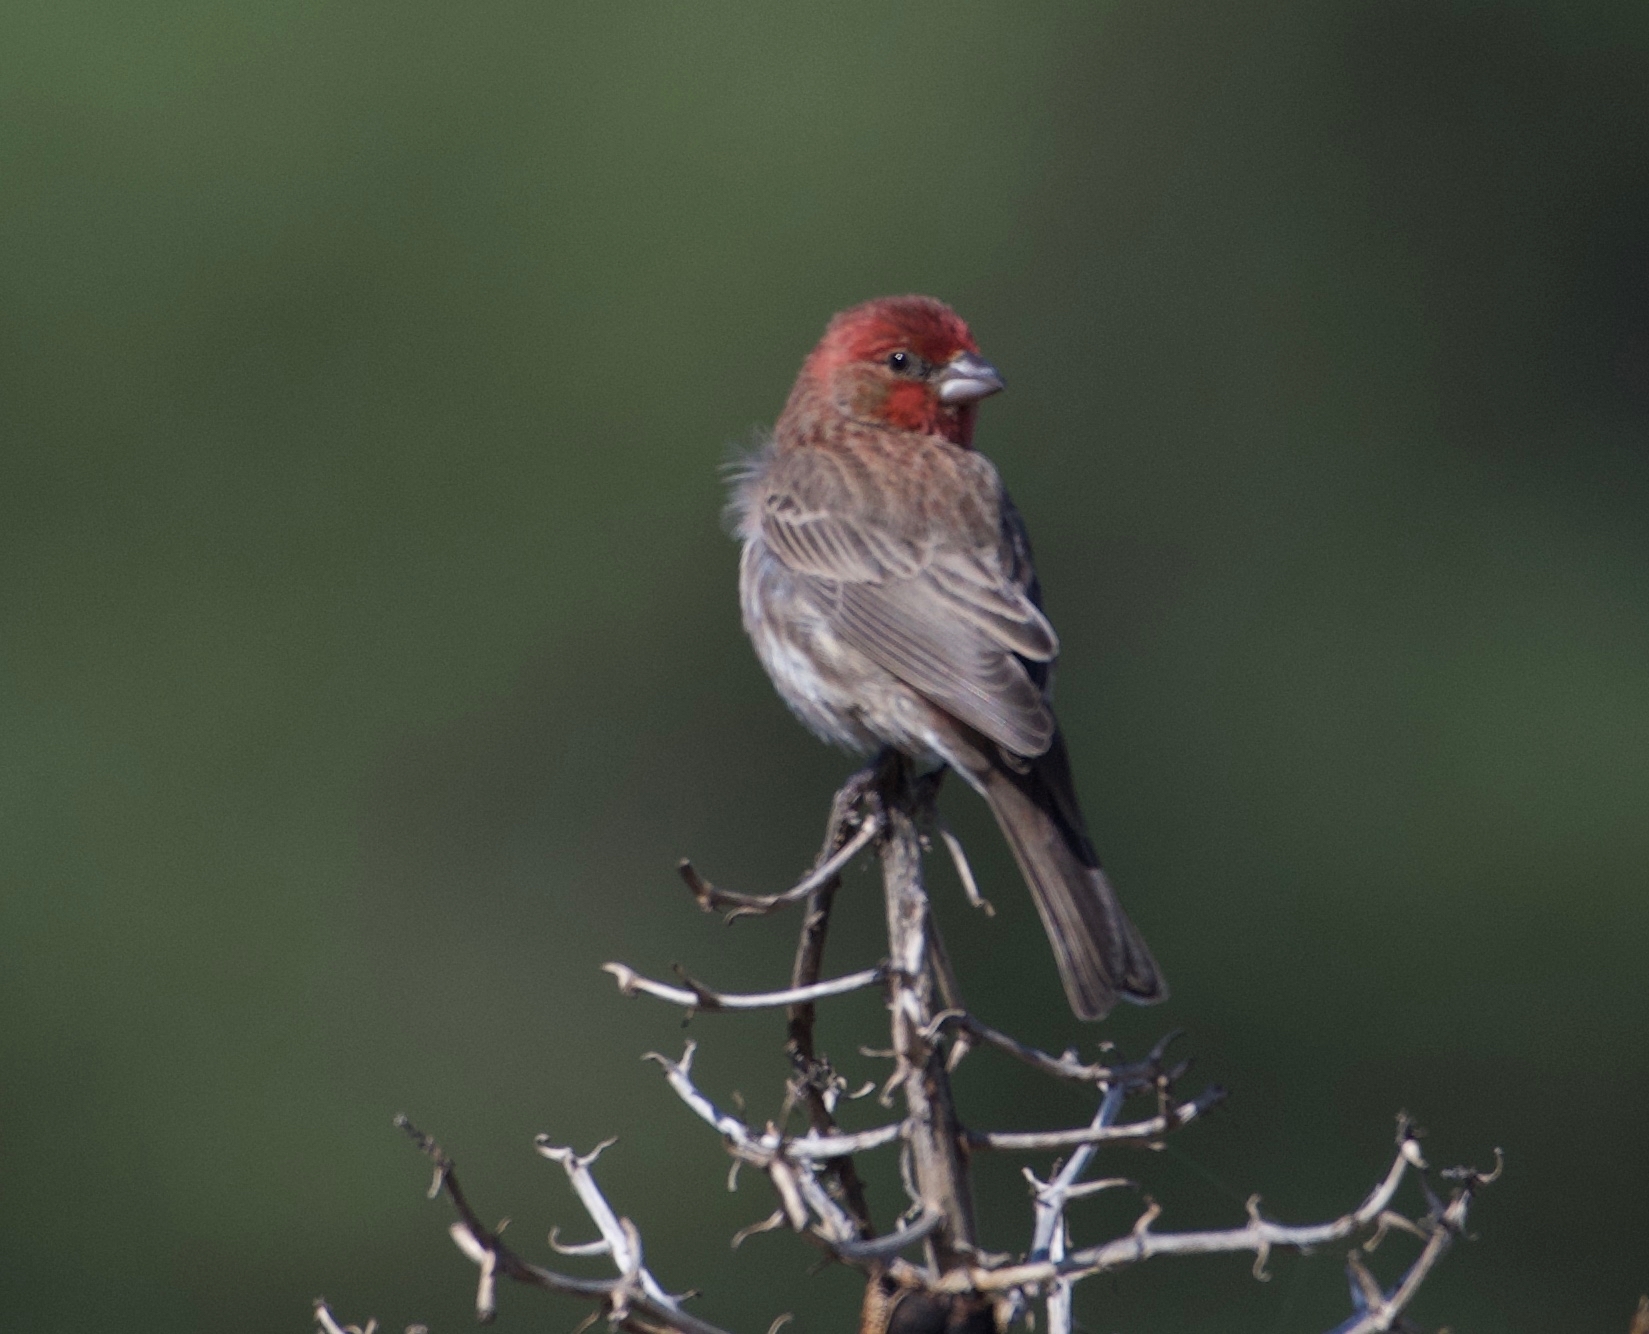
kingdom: Animalia
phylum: Chordata
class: Aves
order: Passeriformes
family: Fringillidae
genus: Haemorhous
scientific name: Haemorhous mexicanus
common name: House finch
